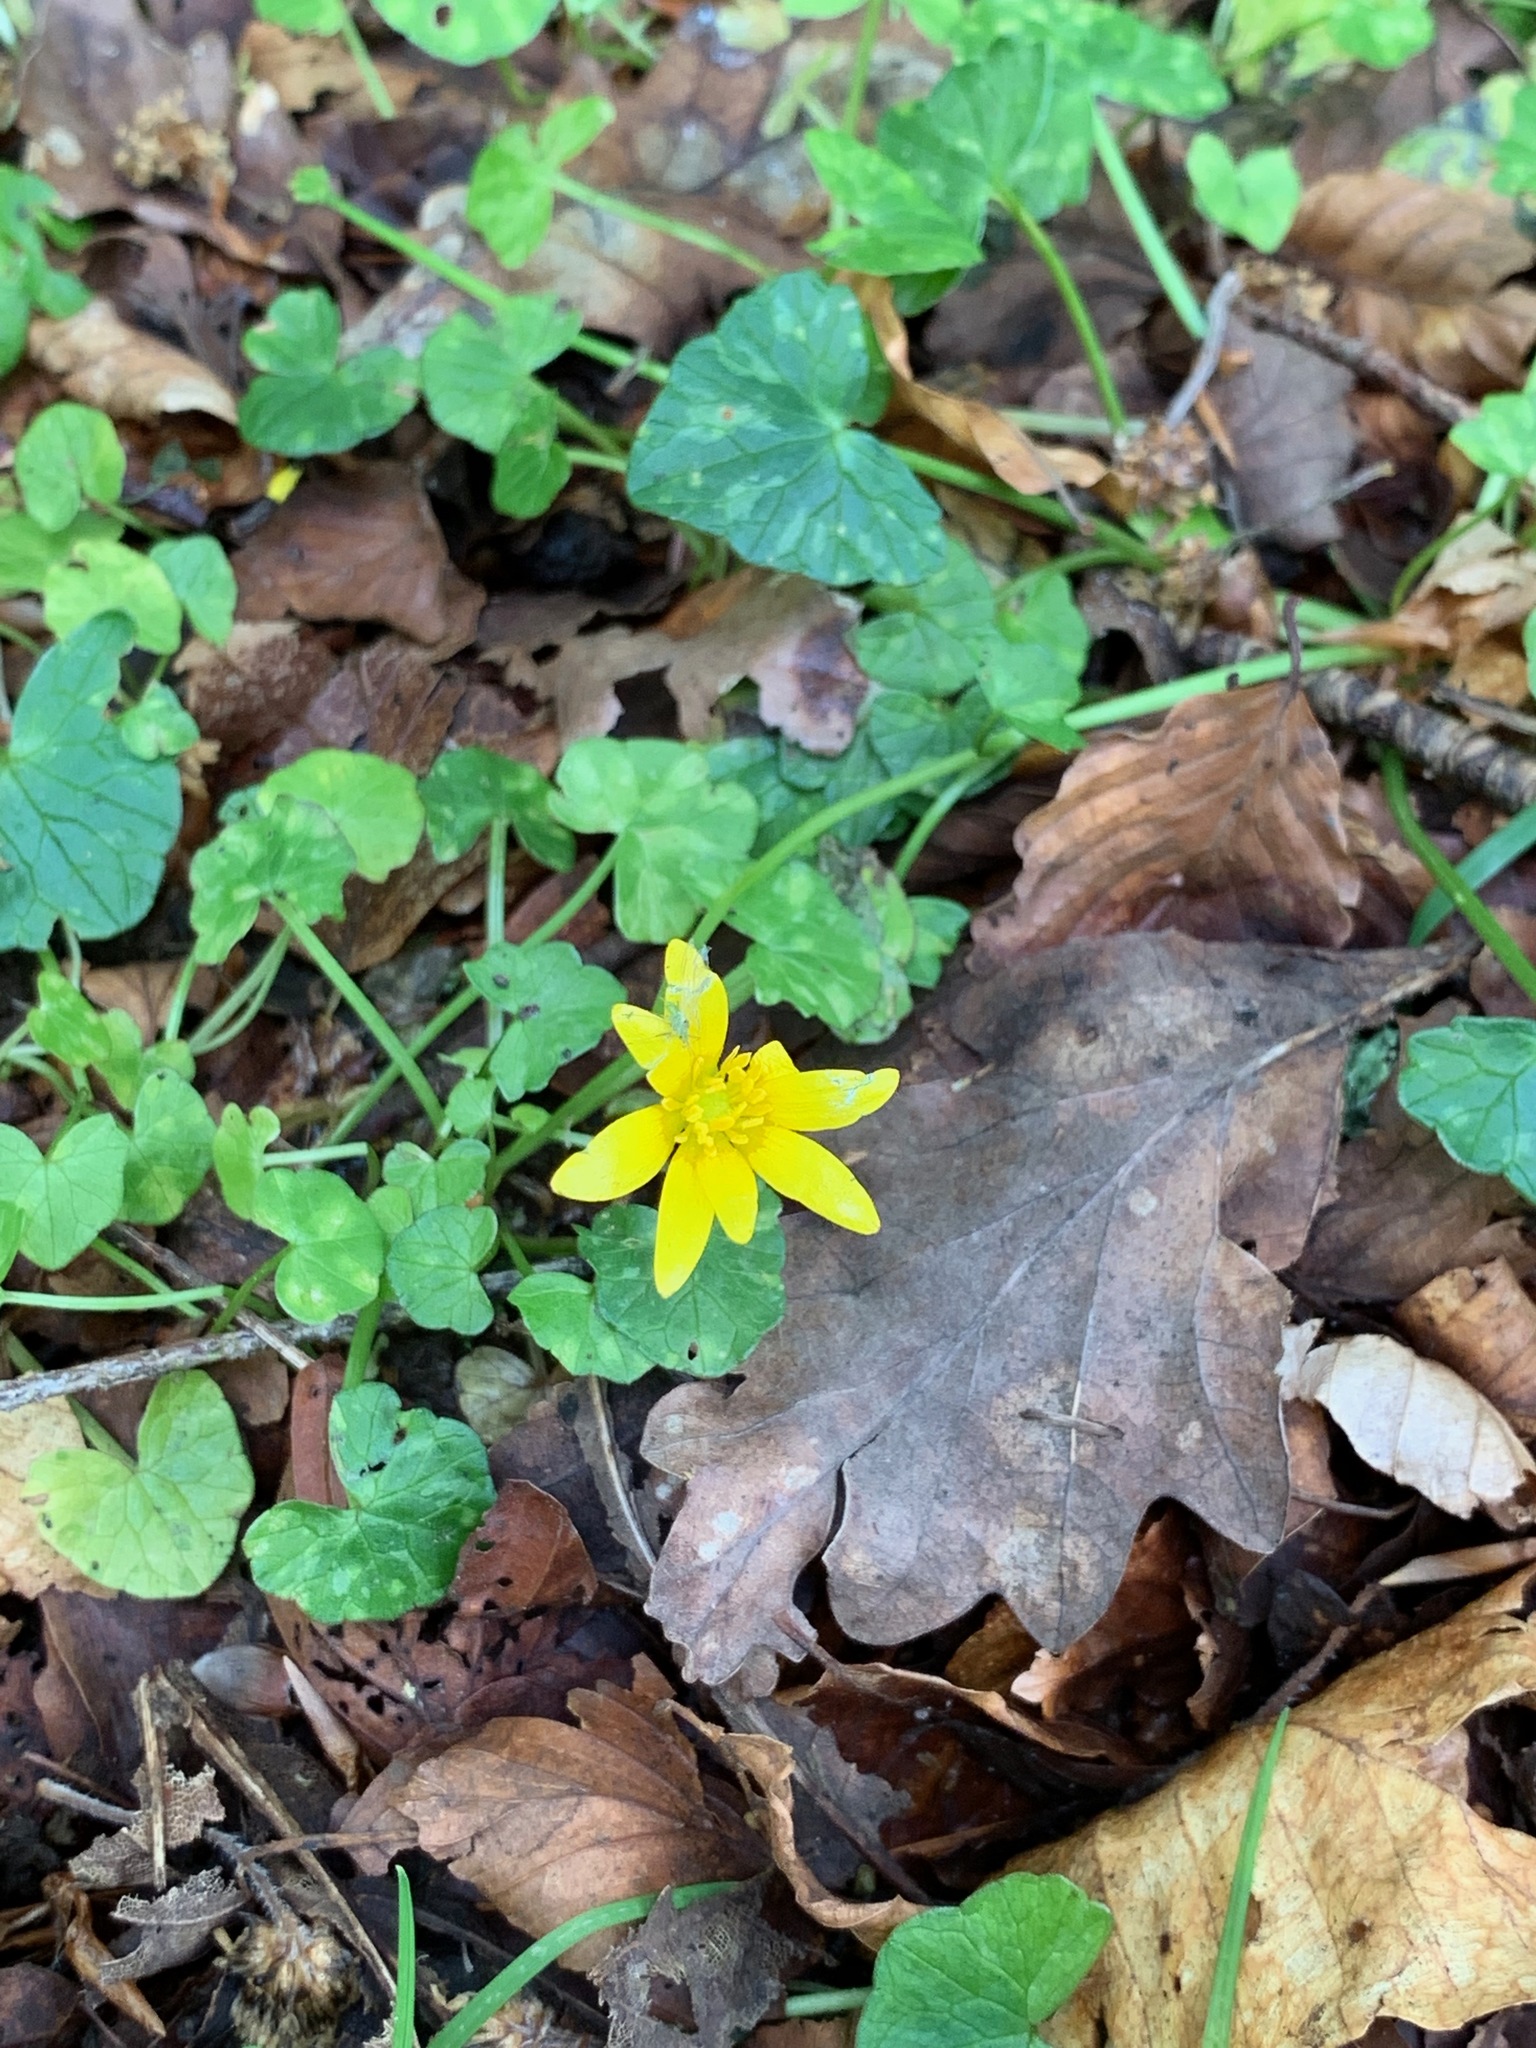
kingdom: Plantae
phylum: Tracheophyta
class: Magnoliopsida
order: Ranunculales
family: Ranunculaceae
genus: Ficaria
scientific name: Ficaria verna
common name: Lesser celandine
